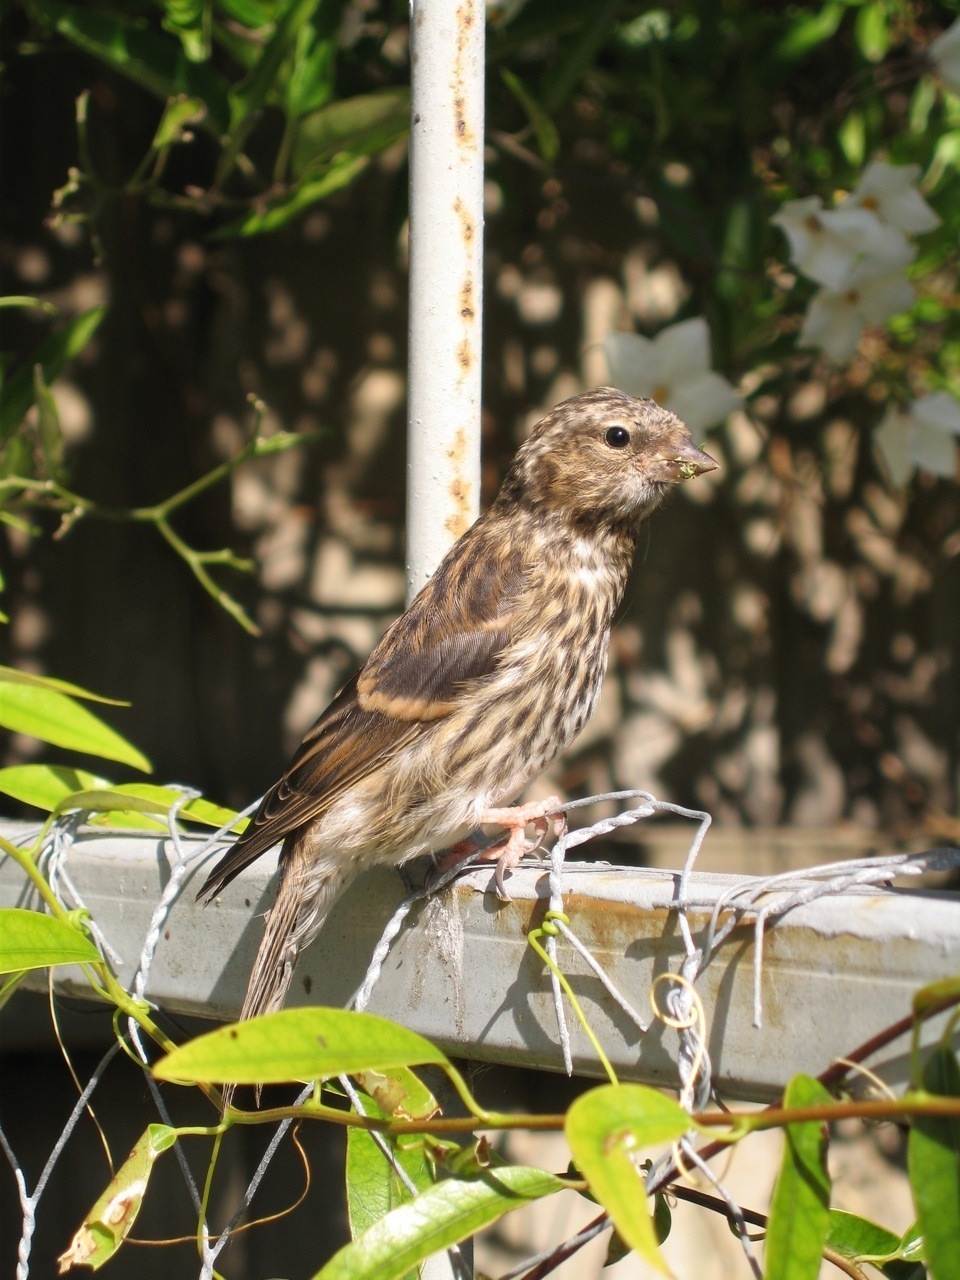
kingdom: Animalia
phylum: Chordata
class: Aves
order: Passeriformes
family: Fringillidae
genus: Acanthis
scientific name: Acanthis flammea
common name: Common redpoll
